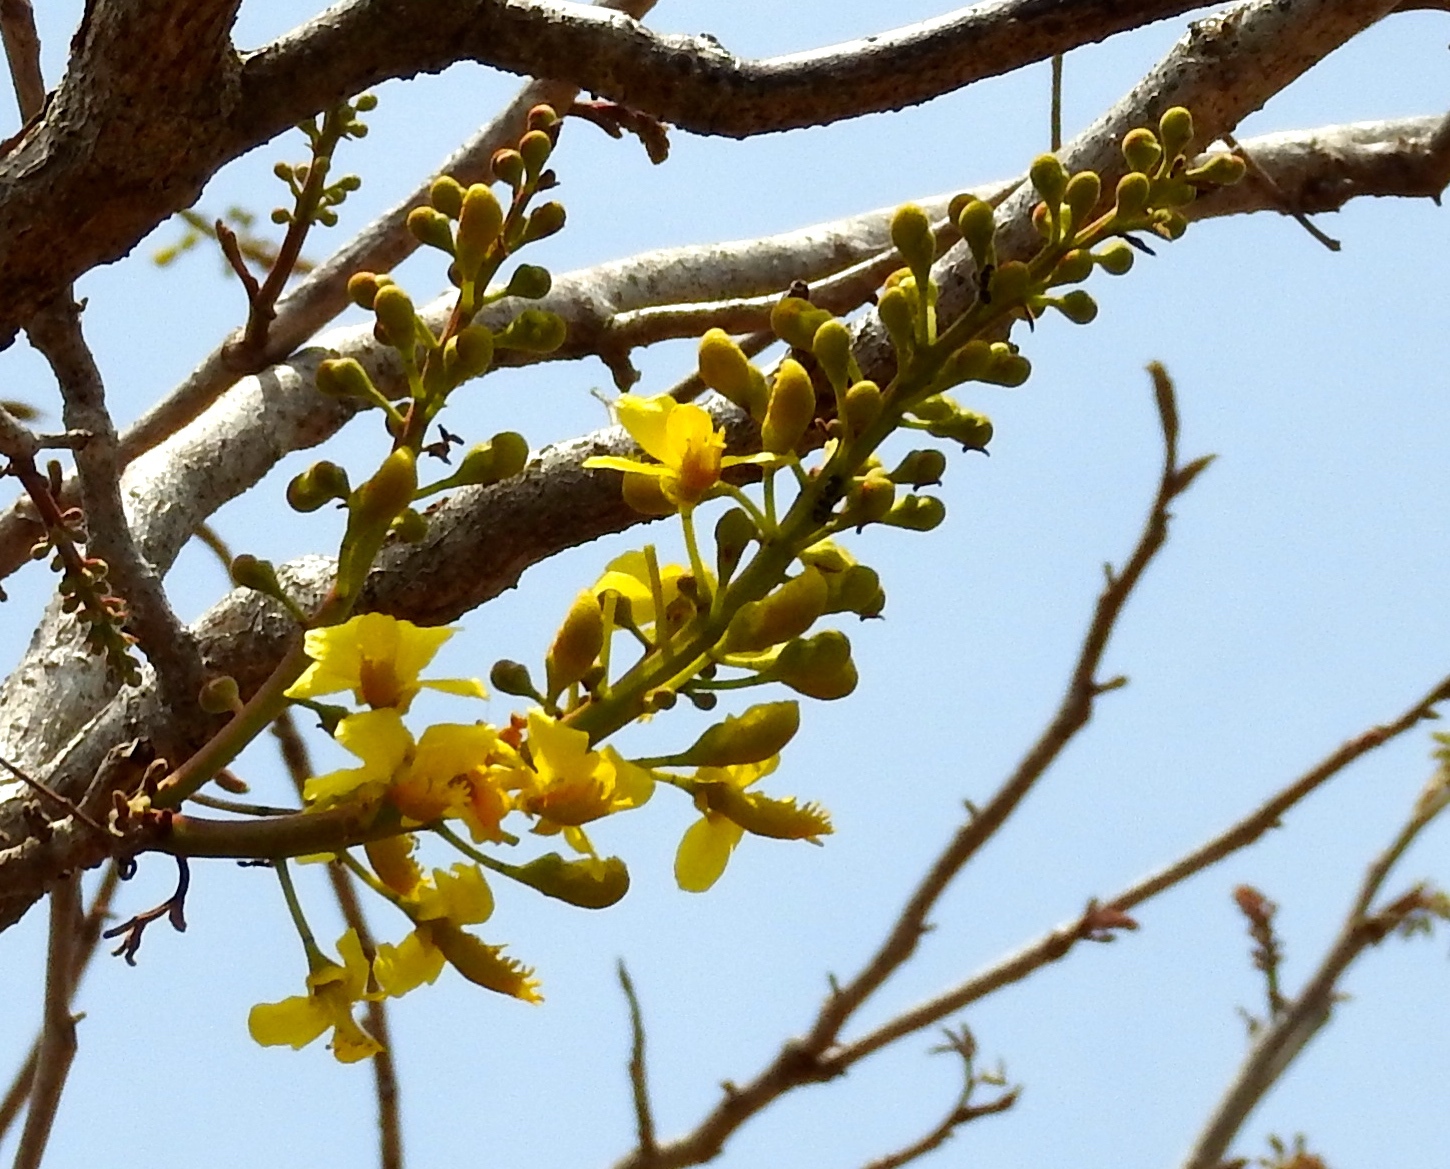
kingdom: Plantae
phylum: Tracheophyta
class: Magnoliopsida
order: Fabales
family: Fabaceae
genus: Coulteria
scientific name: Coulteria platyloba
